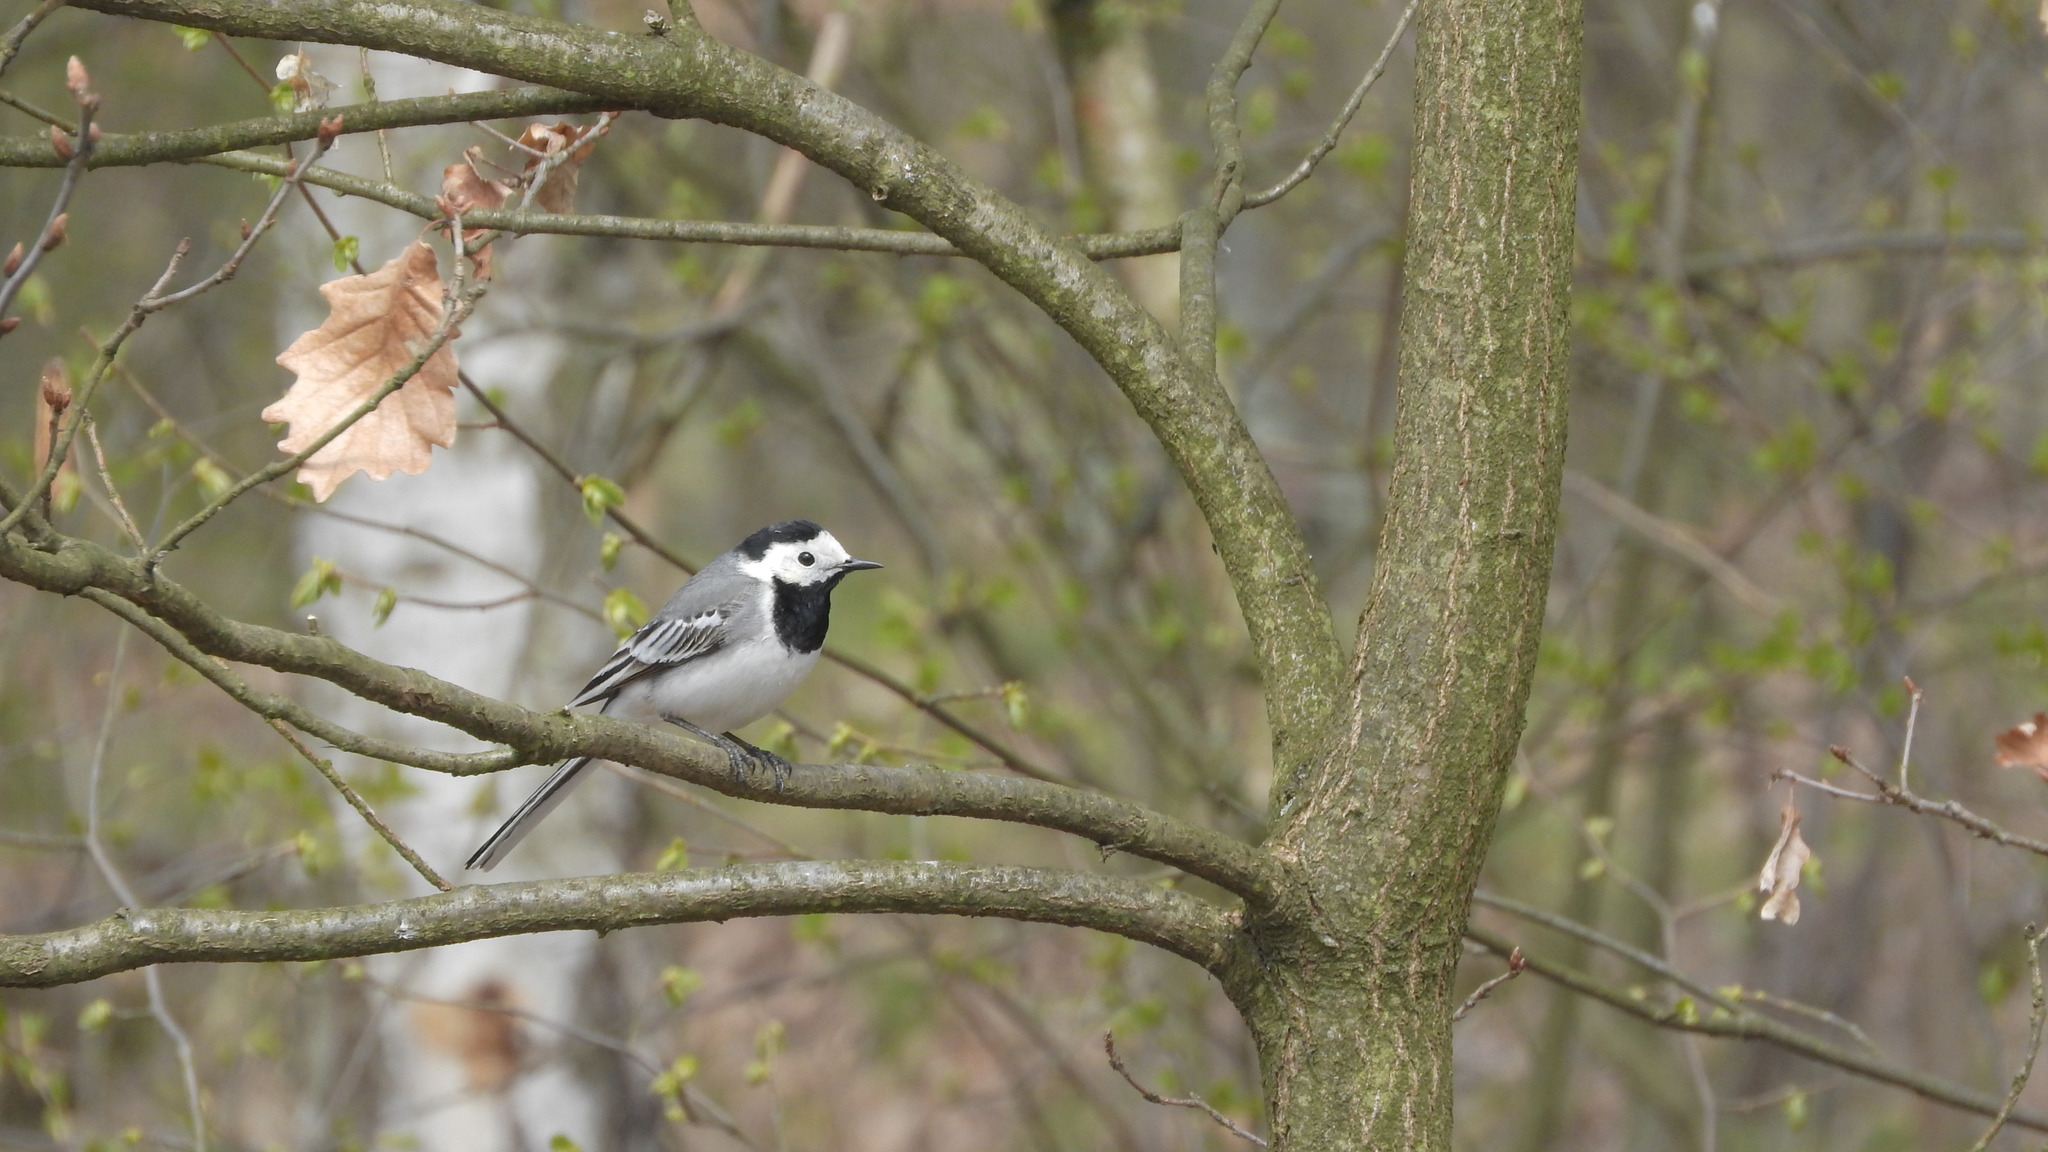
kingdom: Animalia
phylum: Chordata
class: Aves
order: Passeriformes
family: Motacillidae
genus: Motacilla
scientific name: Motacilla alba
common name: White wagtail
